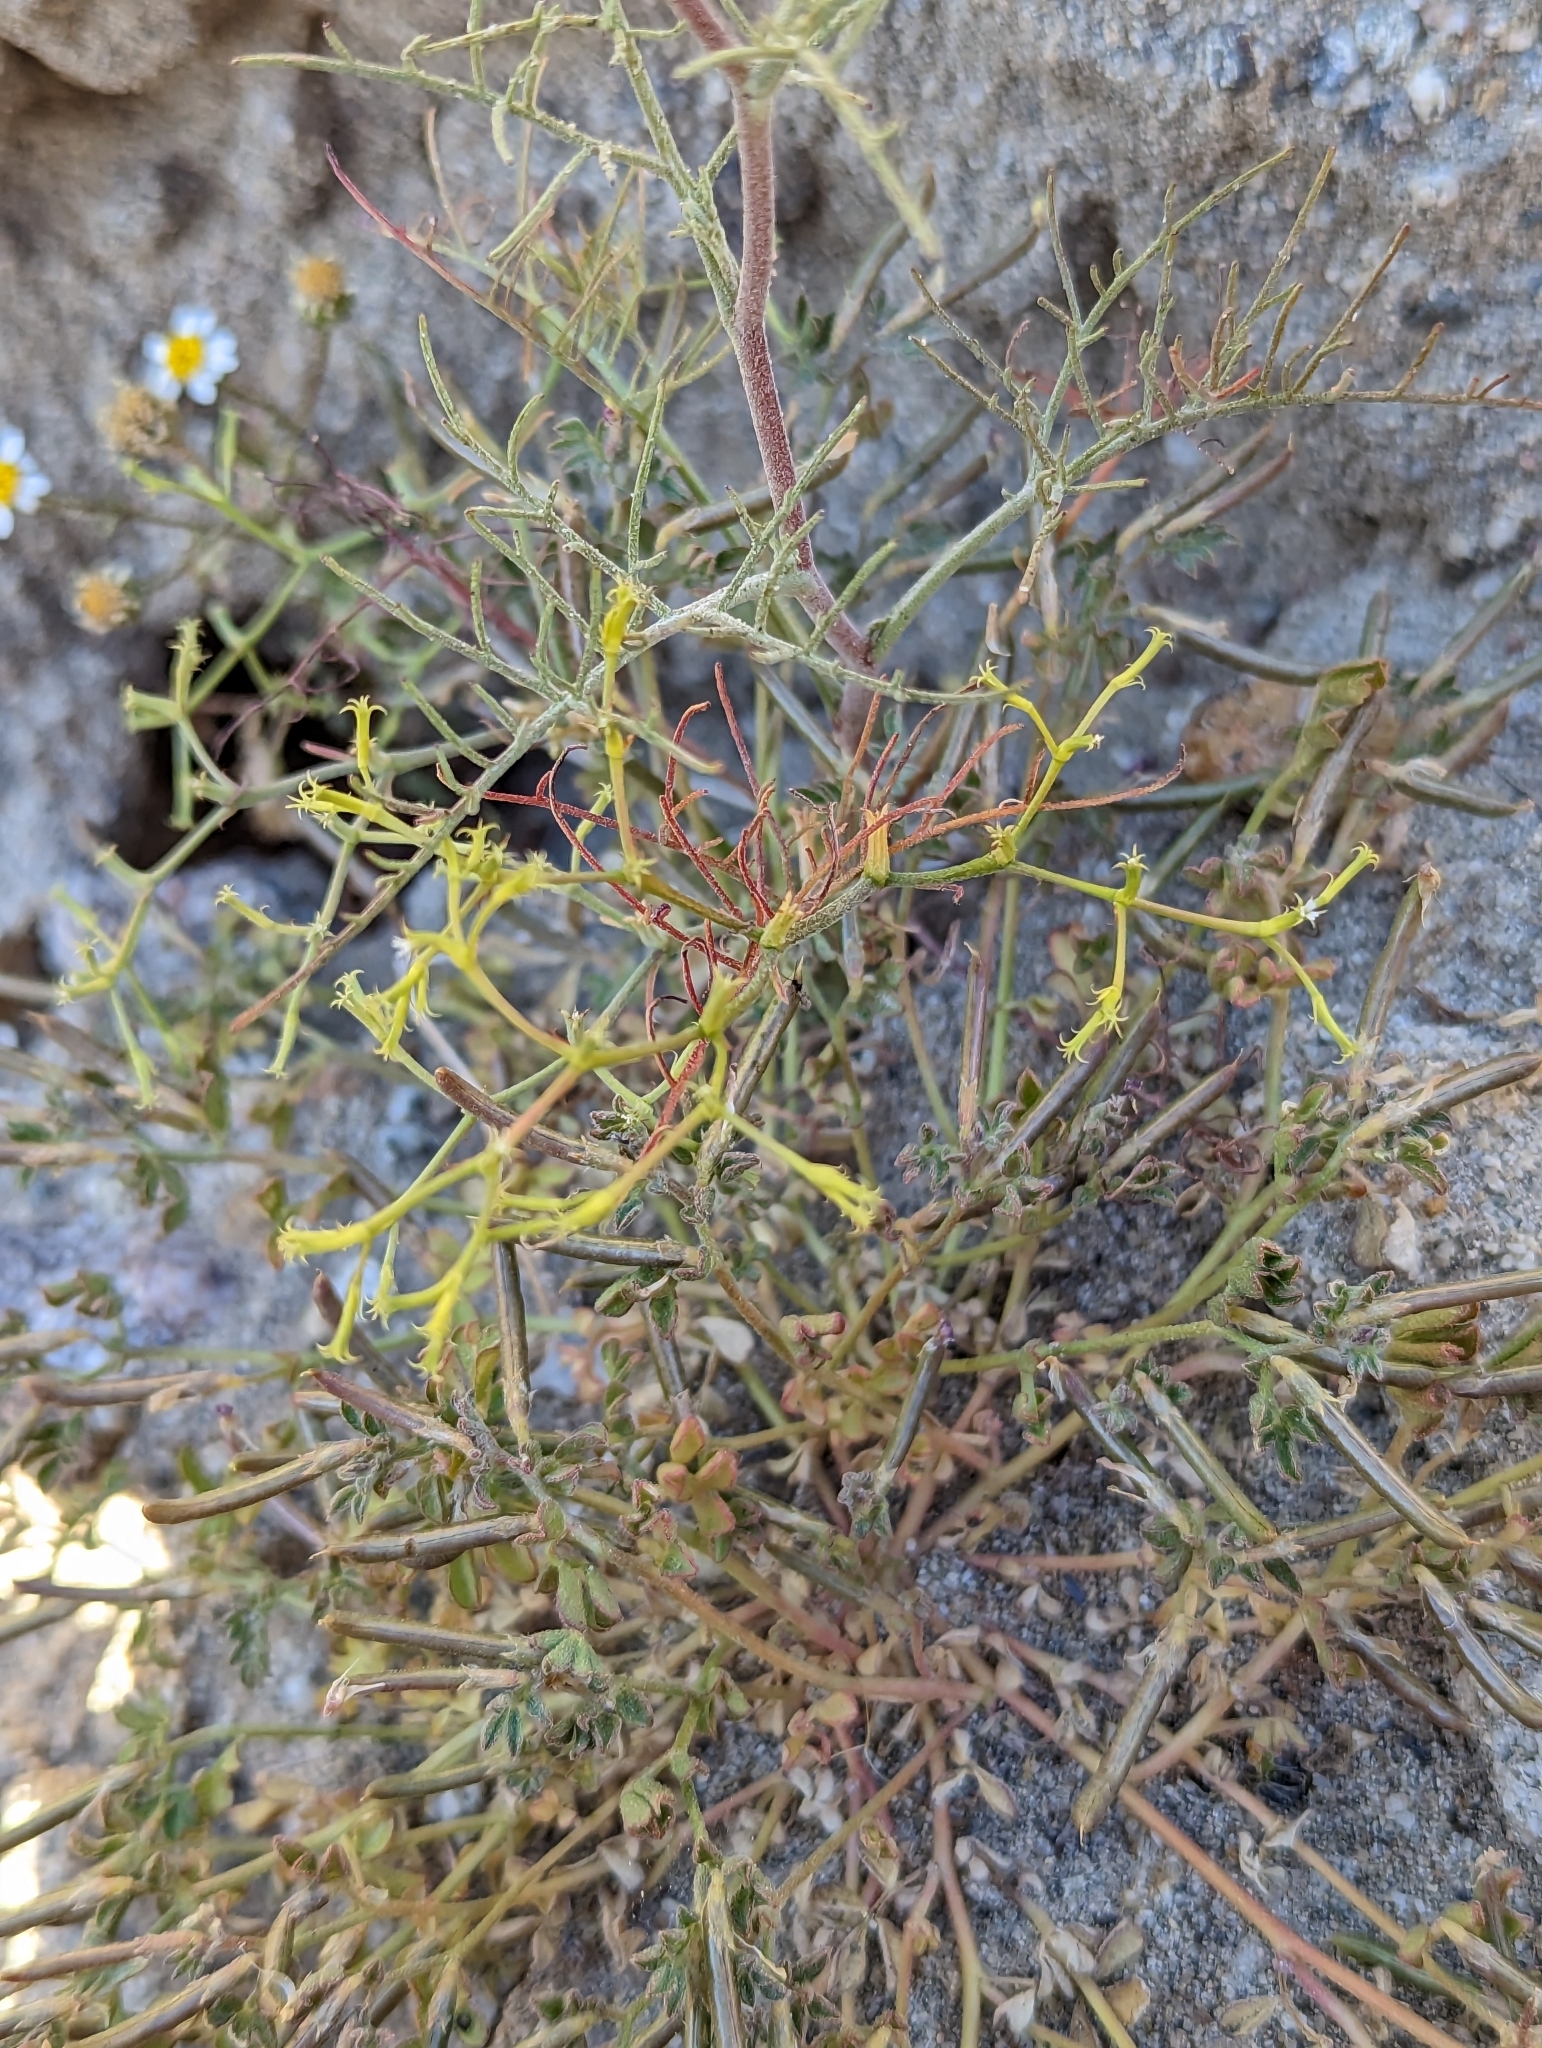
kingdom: Plantae
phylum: Tracheophyta
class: Magnoliopsida
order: Caryophyllales
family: Polygonaceae
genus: Chorizanthe
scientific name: Chorizanthe brevicornu
